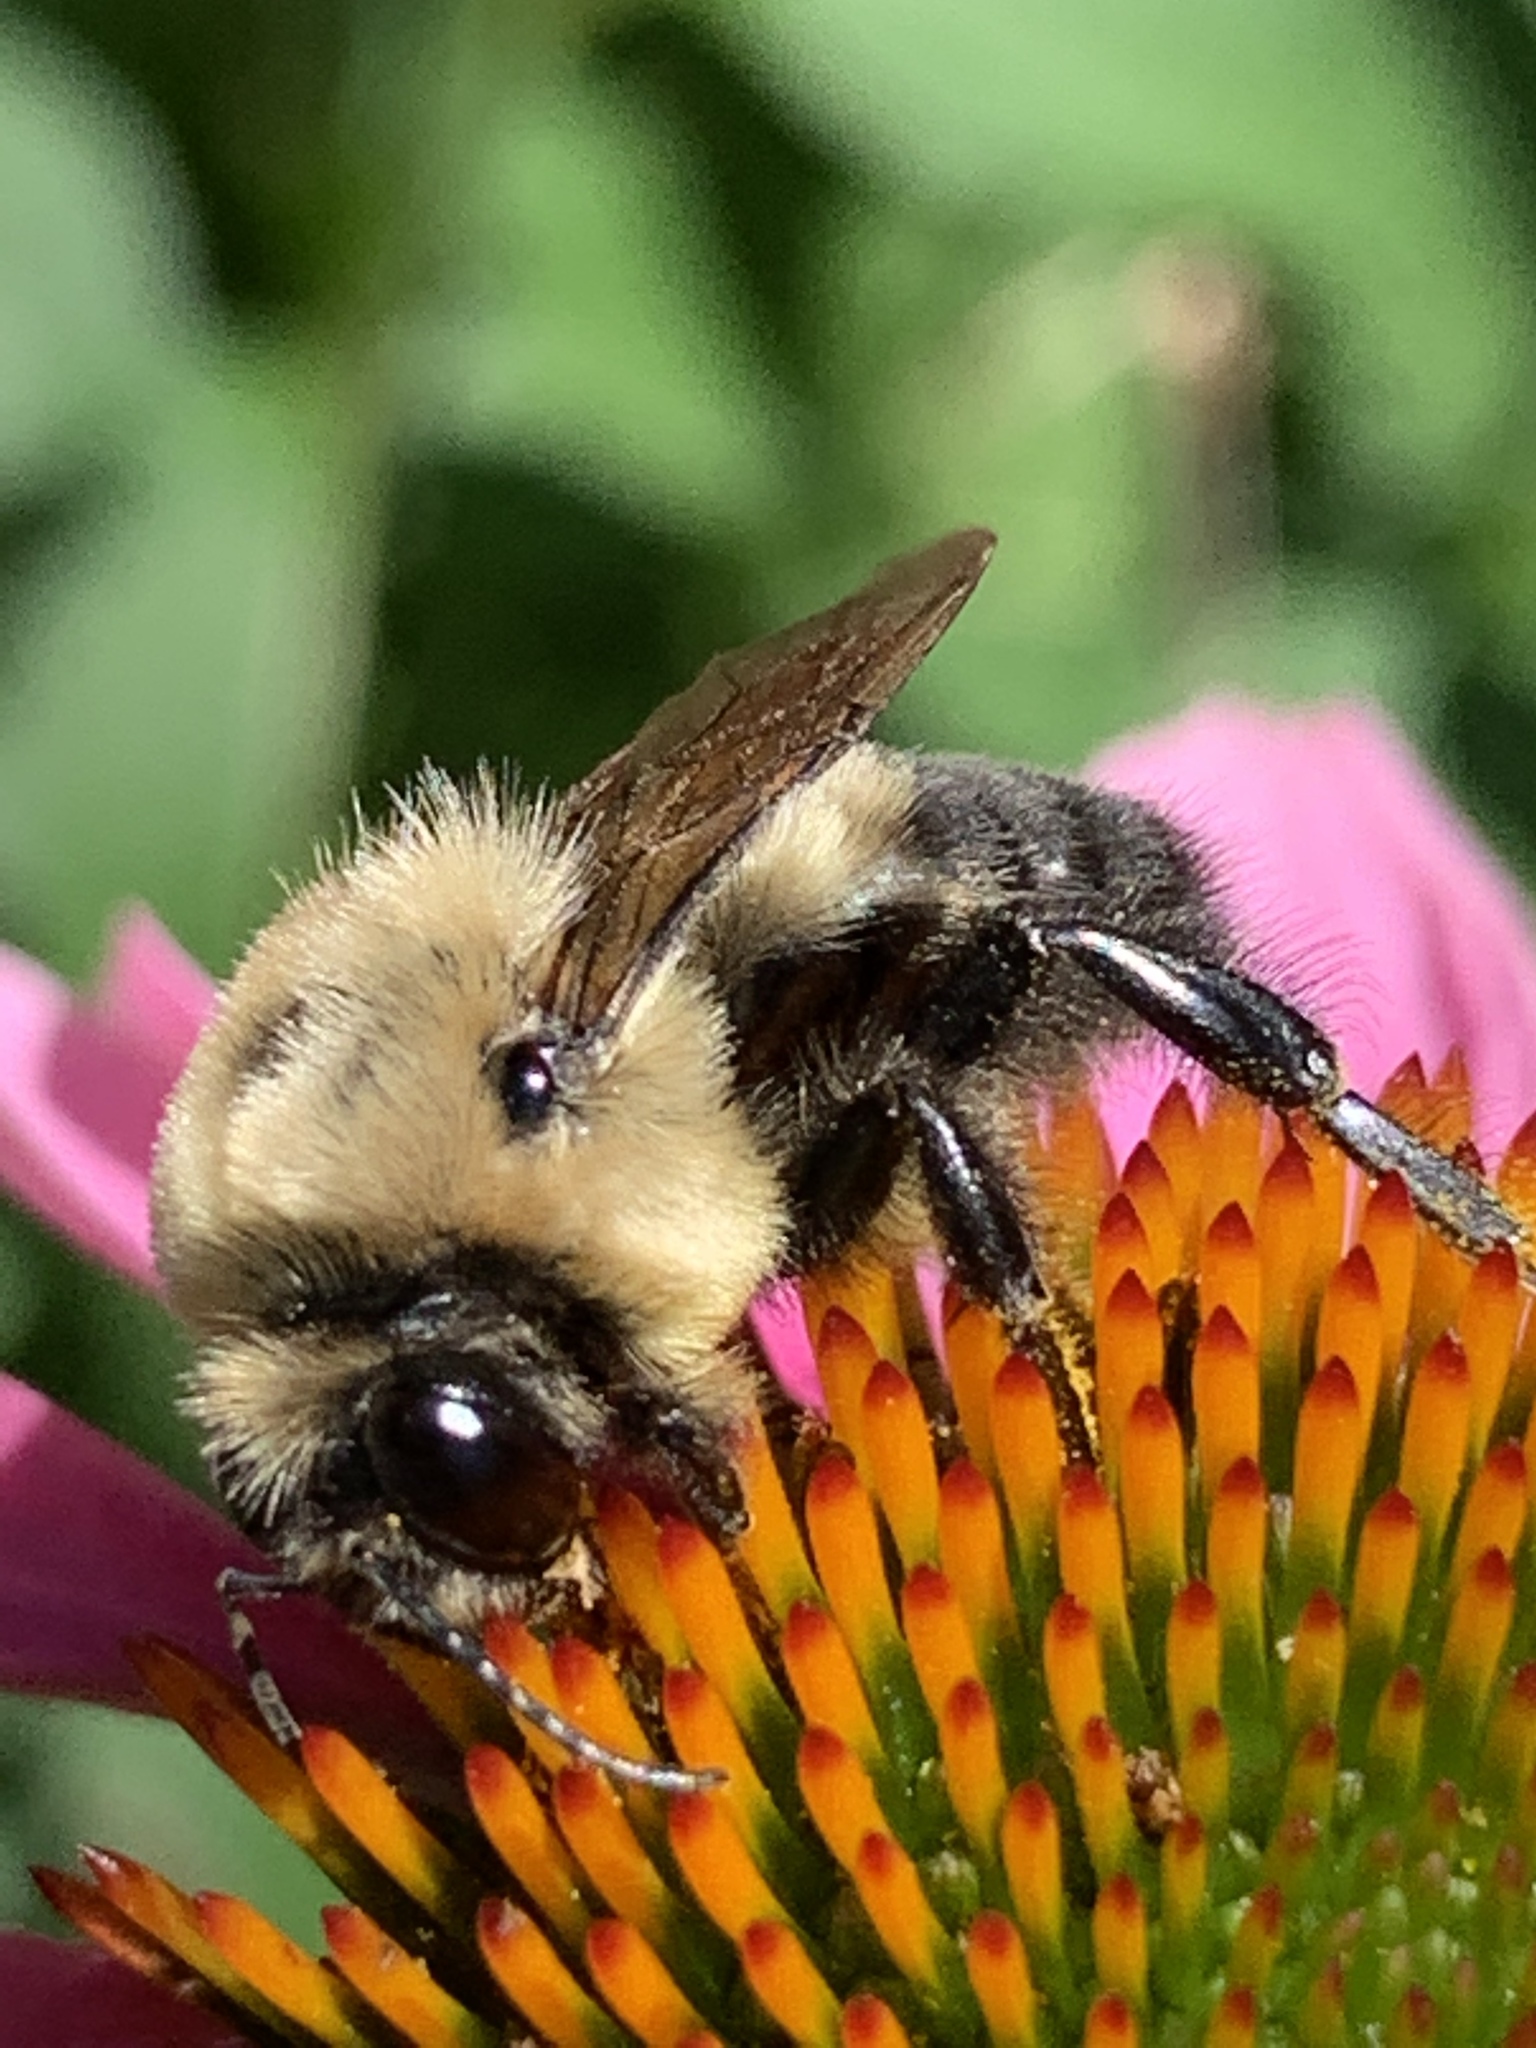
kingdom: Animalia
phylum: Arthropoda
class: Insecta
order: Hymenoptera
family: Apidae
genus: Bombus
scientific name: Bombus griseocollis
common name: Brown-belted bumble bee
